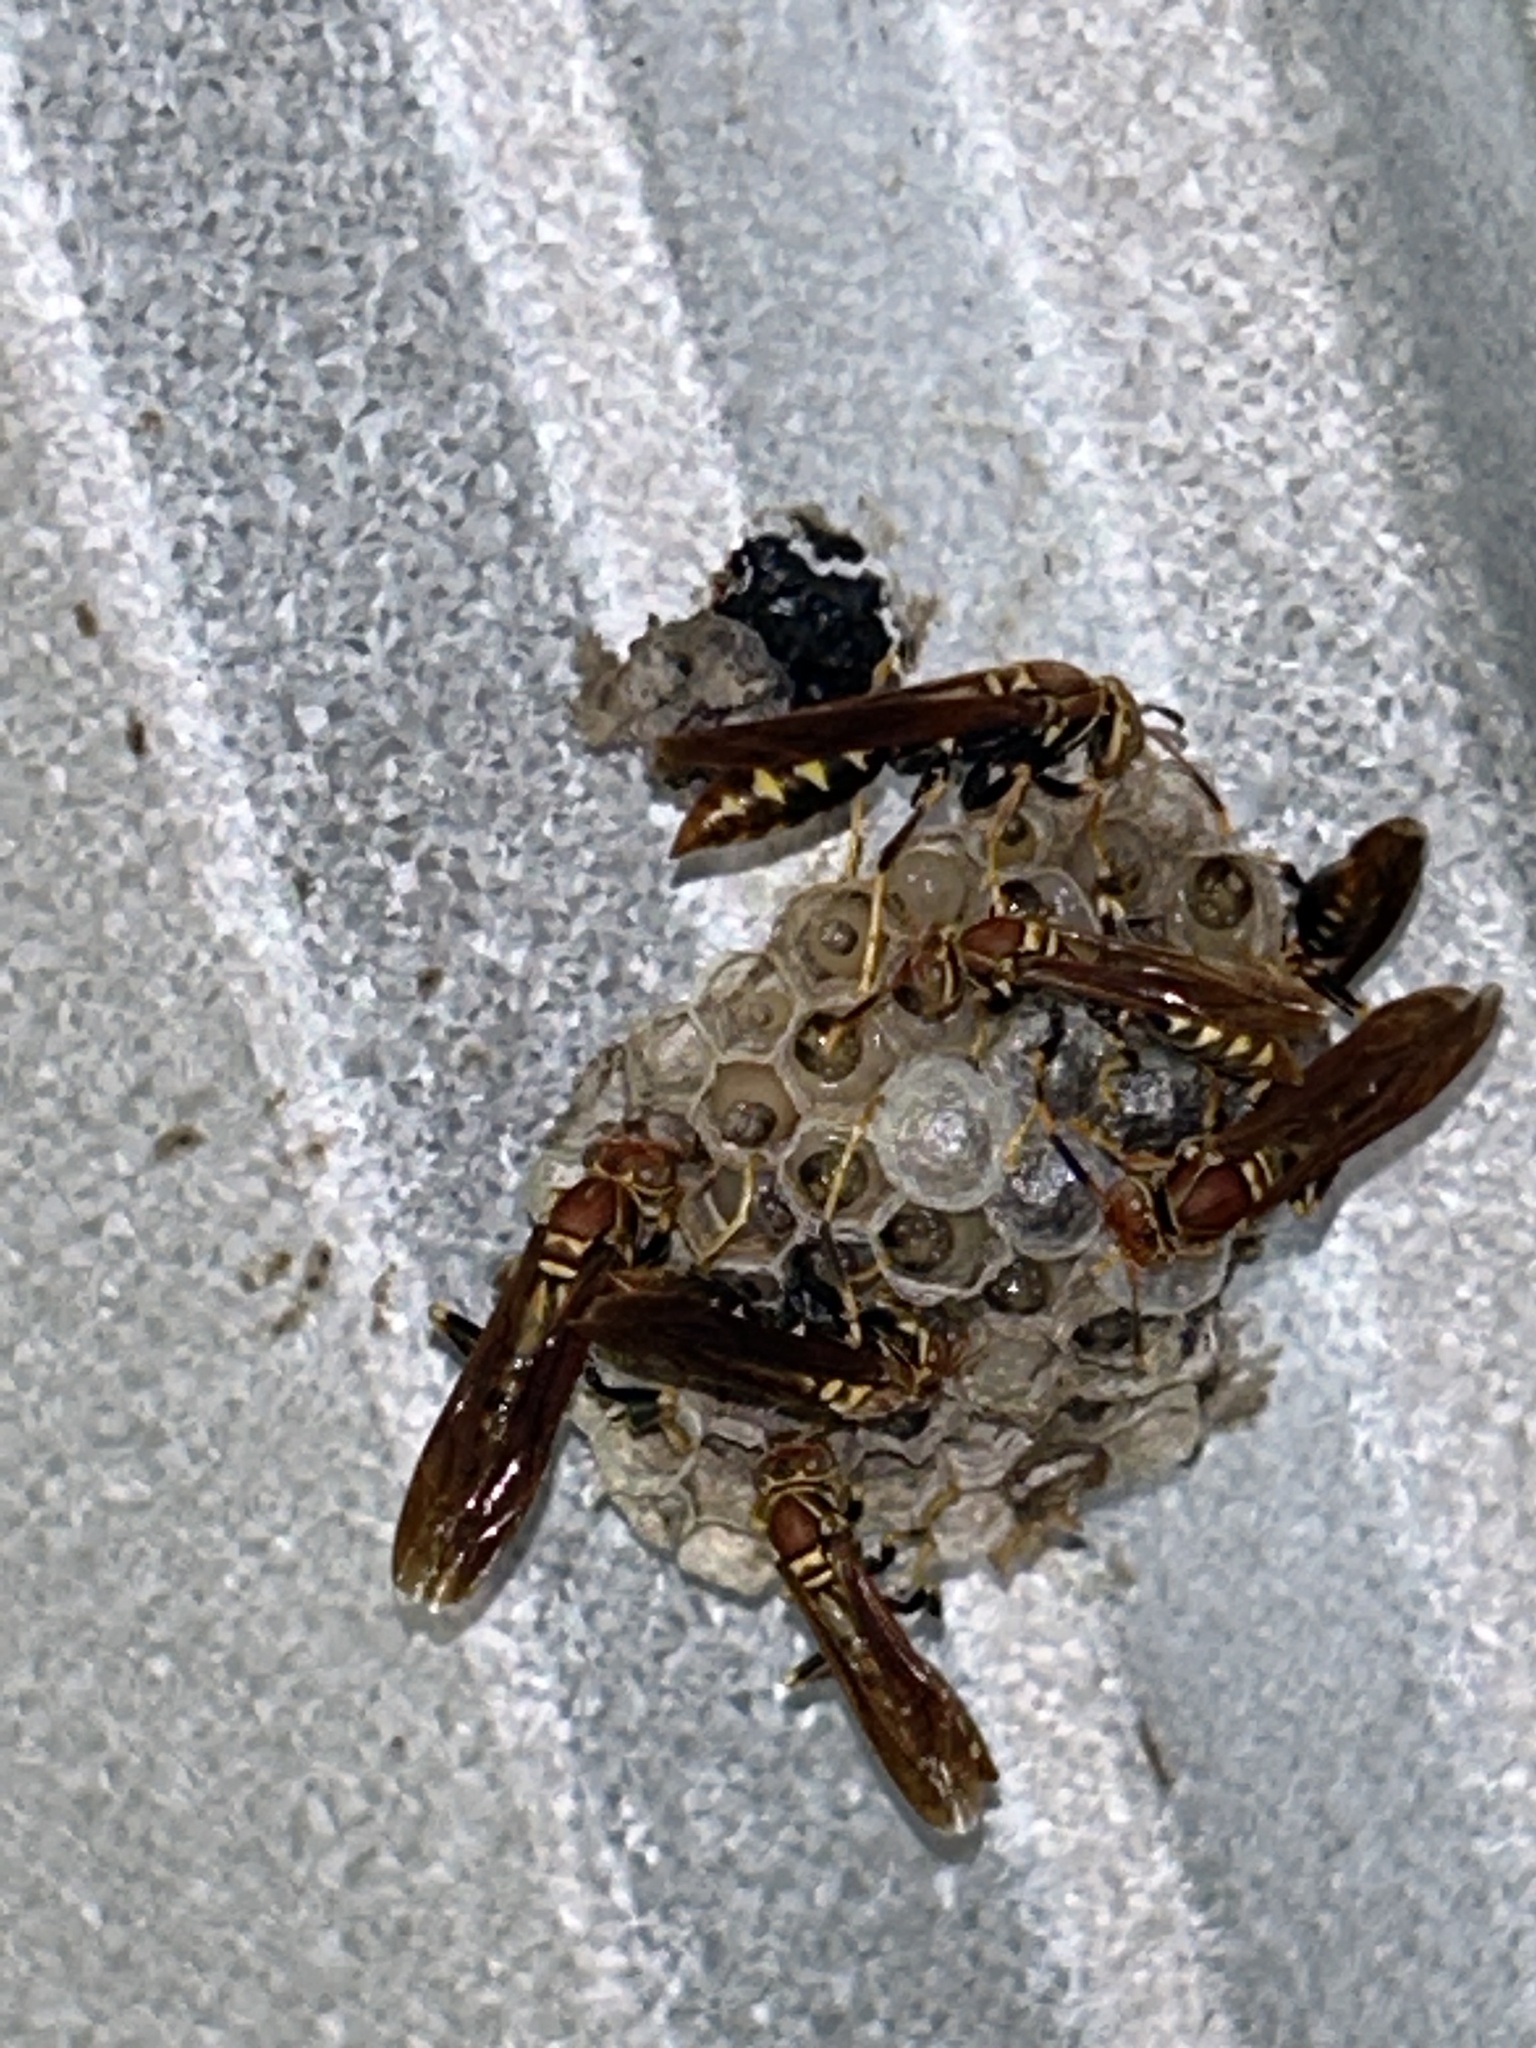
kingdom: Animalia
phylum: Arthropoda
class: Insecta
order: Hymenoptera
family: Eumenidae
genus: Polistes
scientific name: Polistes versicolor
